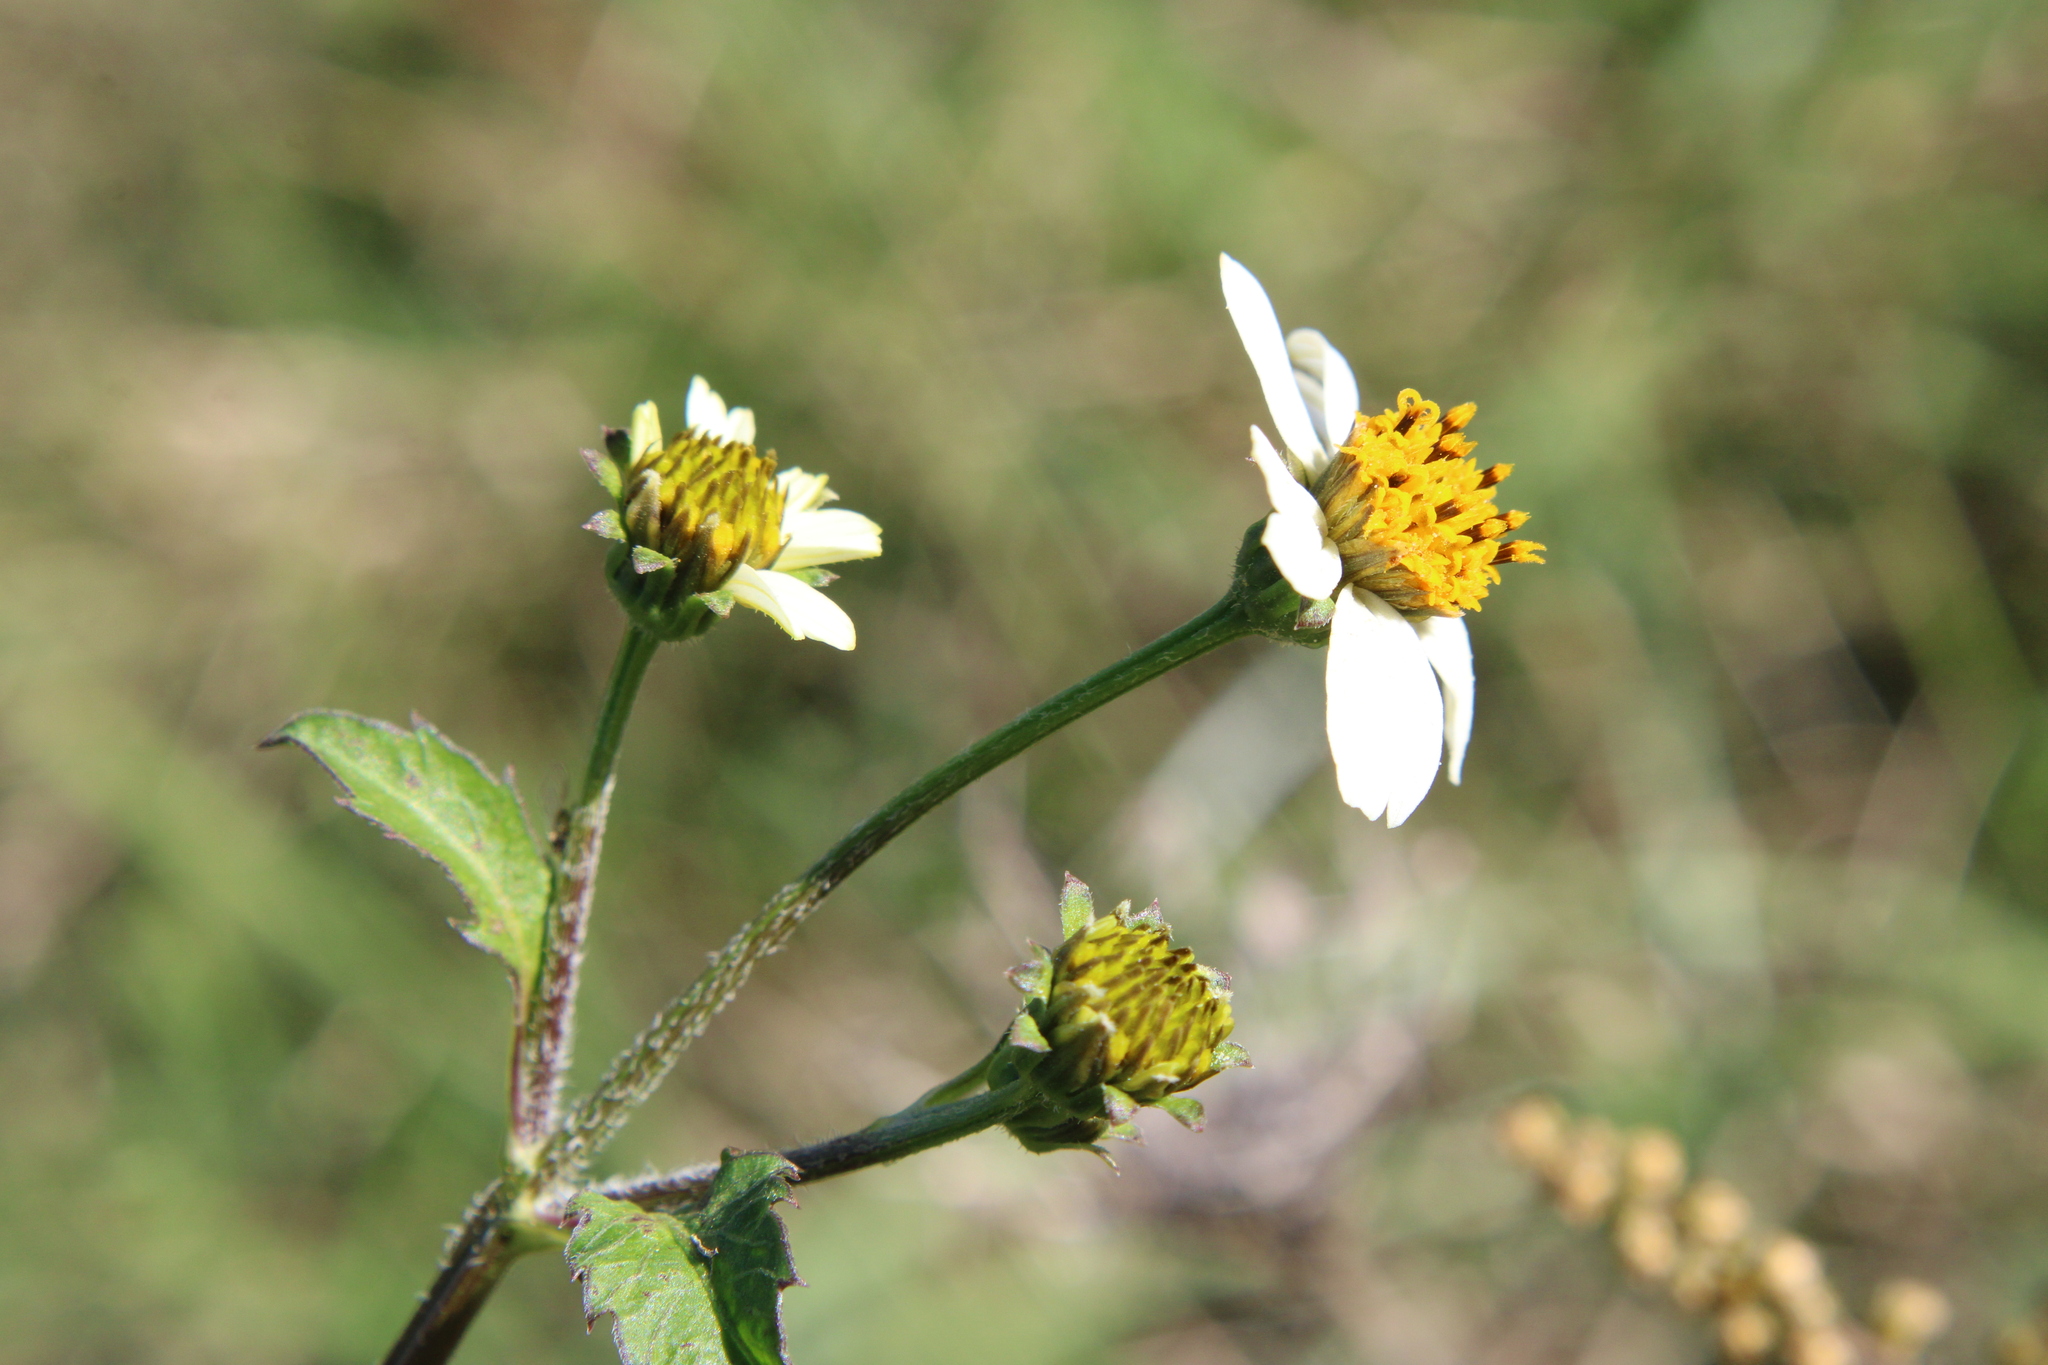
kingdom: Plantae
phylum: Tracheophyta
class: Magnoliopsida
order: Asterales
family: Asteraceae
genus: Bidens
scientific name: Bidens pilosa
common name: Black-jack
